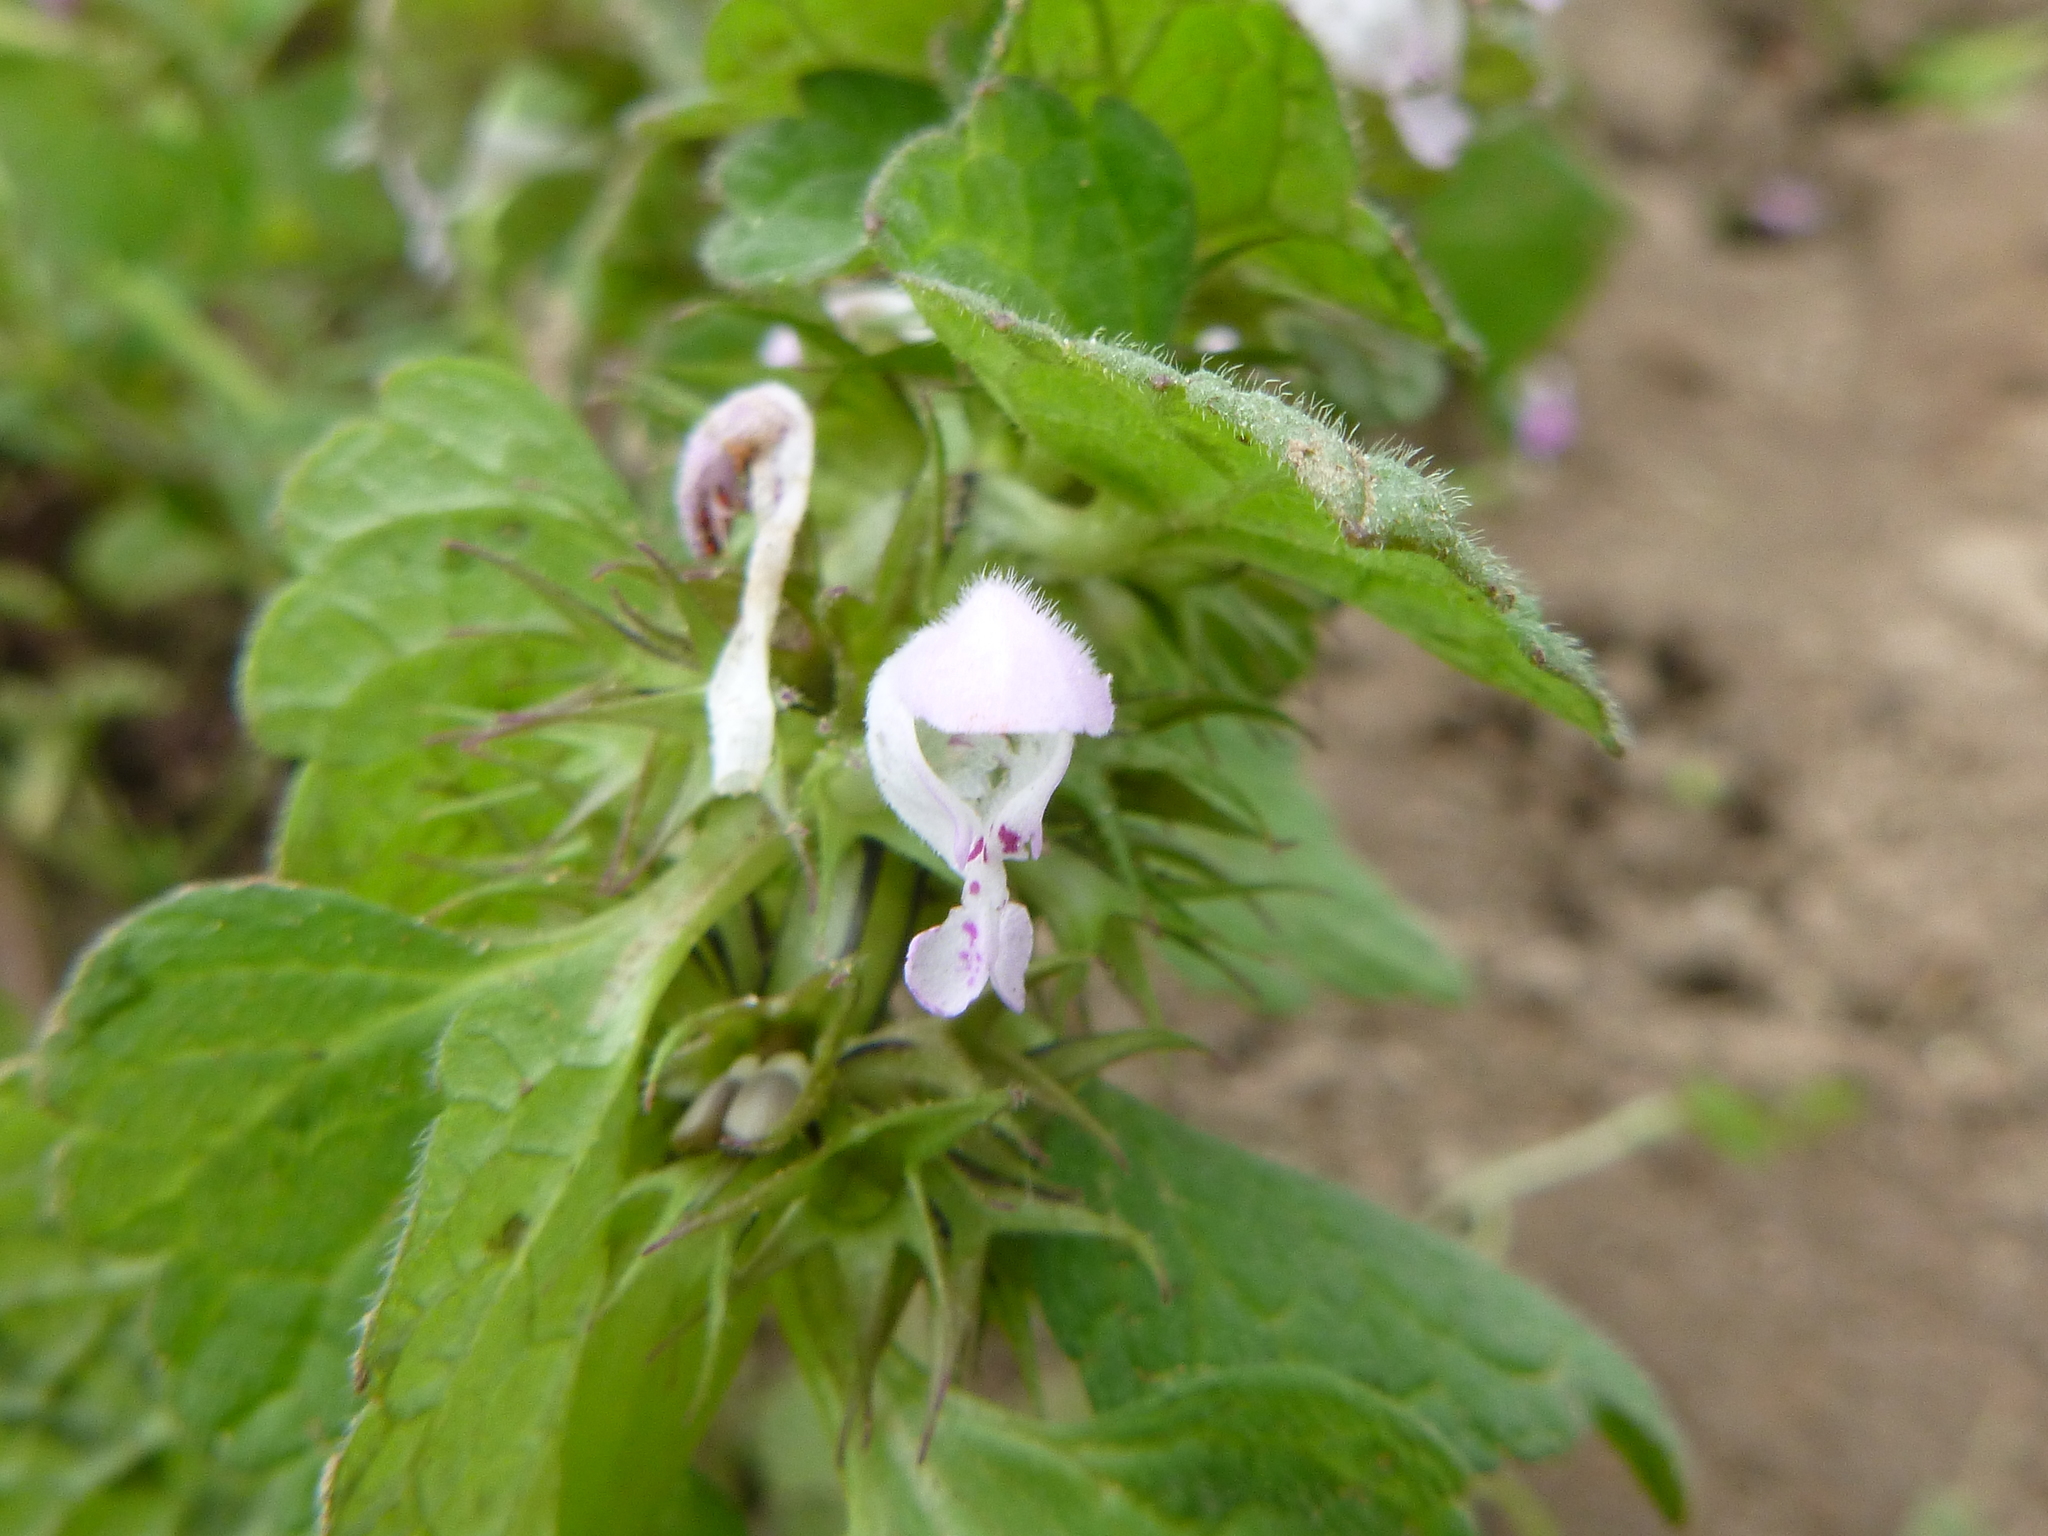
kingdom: Plantae
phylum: Tracheophyta
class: Magnoliopsida
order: Lamiales
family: Lamiaceae
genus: Lamium
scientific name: Lamium purpureum
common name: Red dead-nettle
